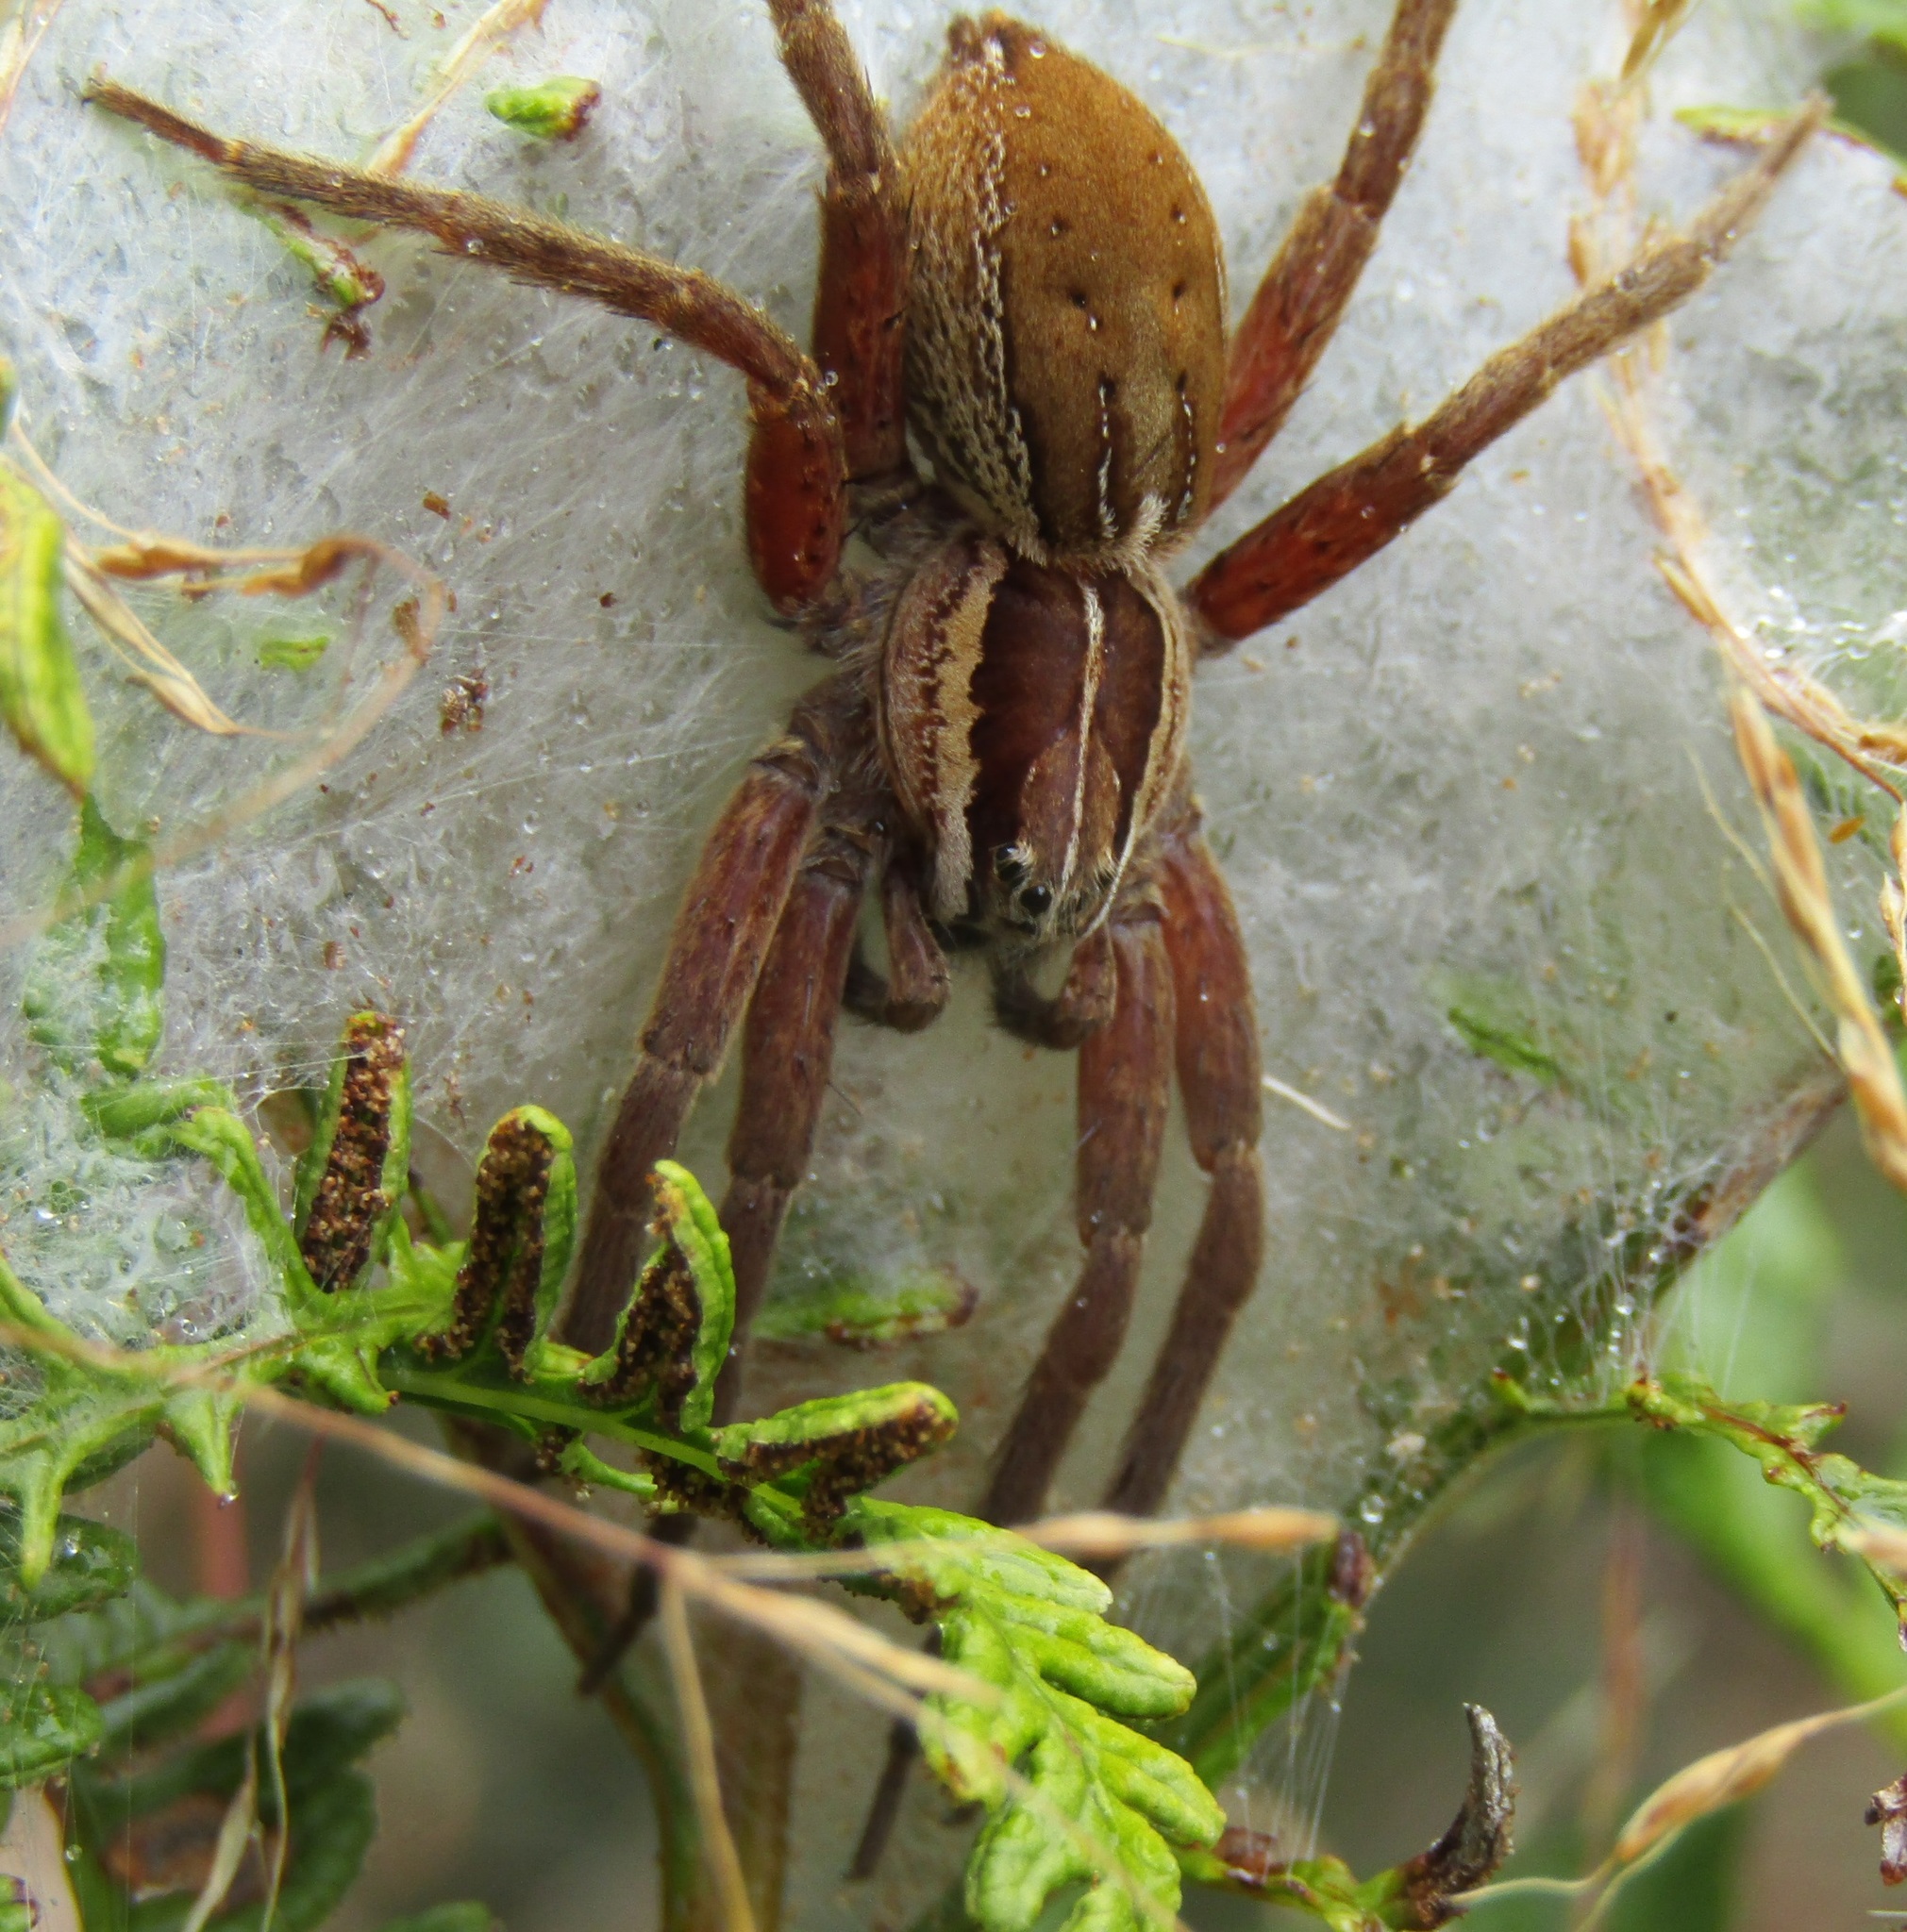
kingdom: Animalia
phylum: Arthropoda
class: Arachnida
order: Araneae
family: Pisauridae
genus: Dolomedes
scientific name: Dolomedes minor
